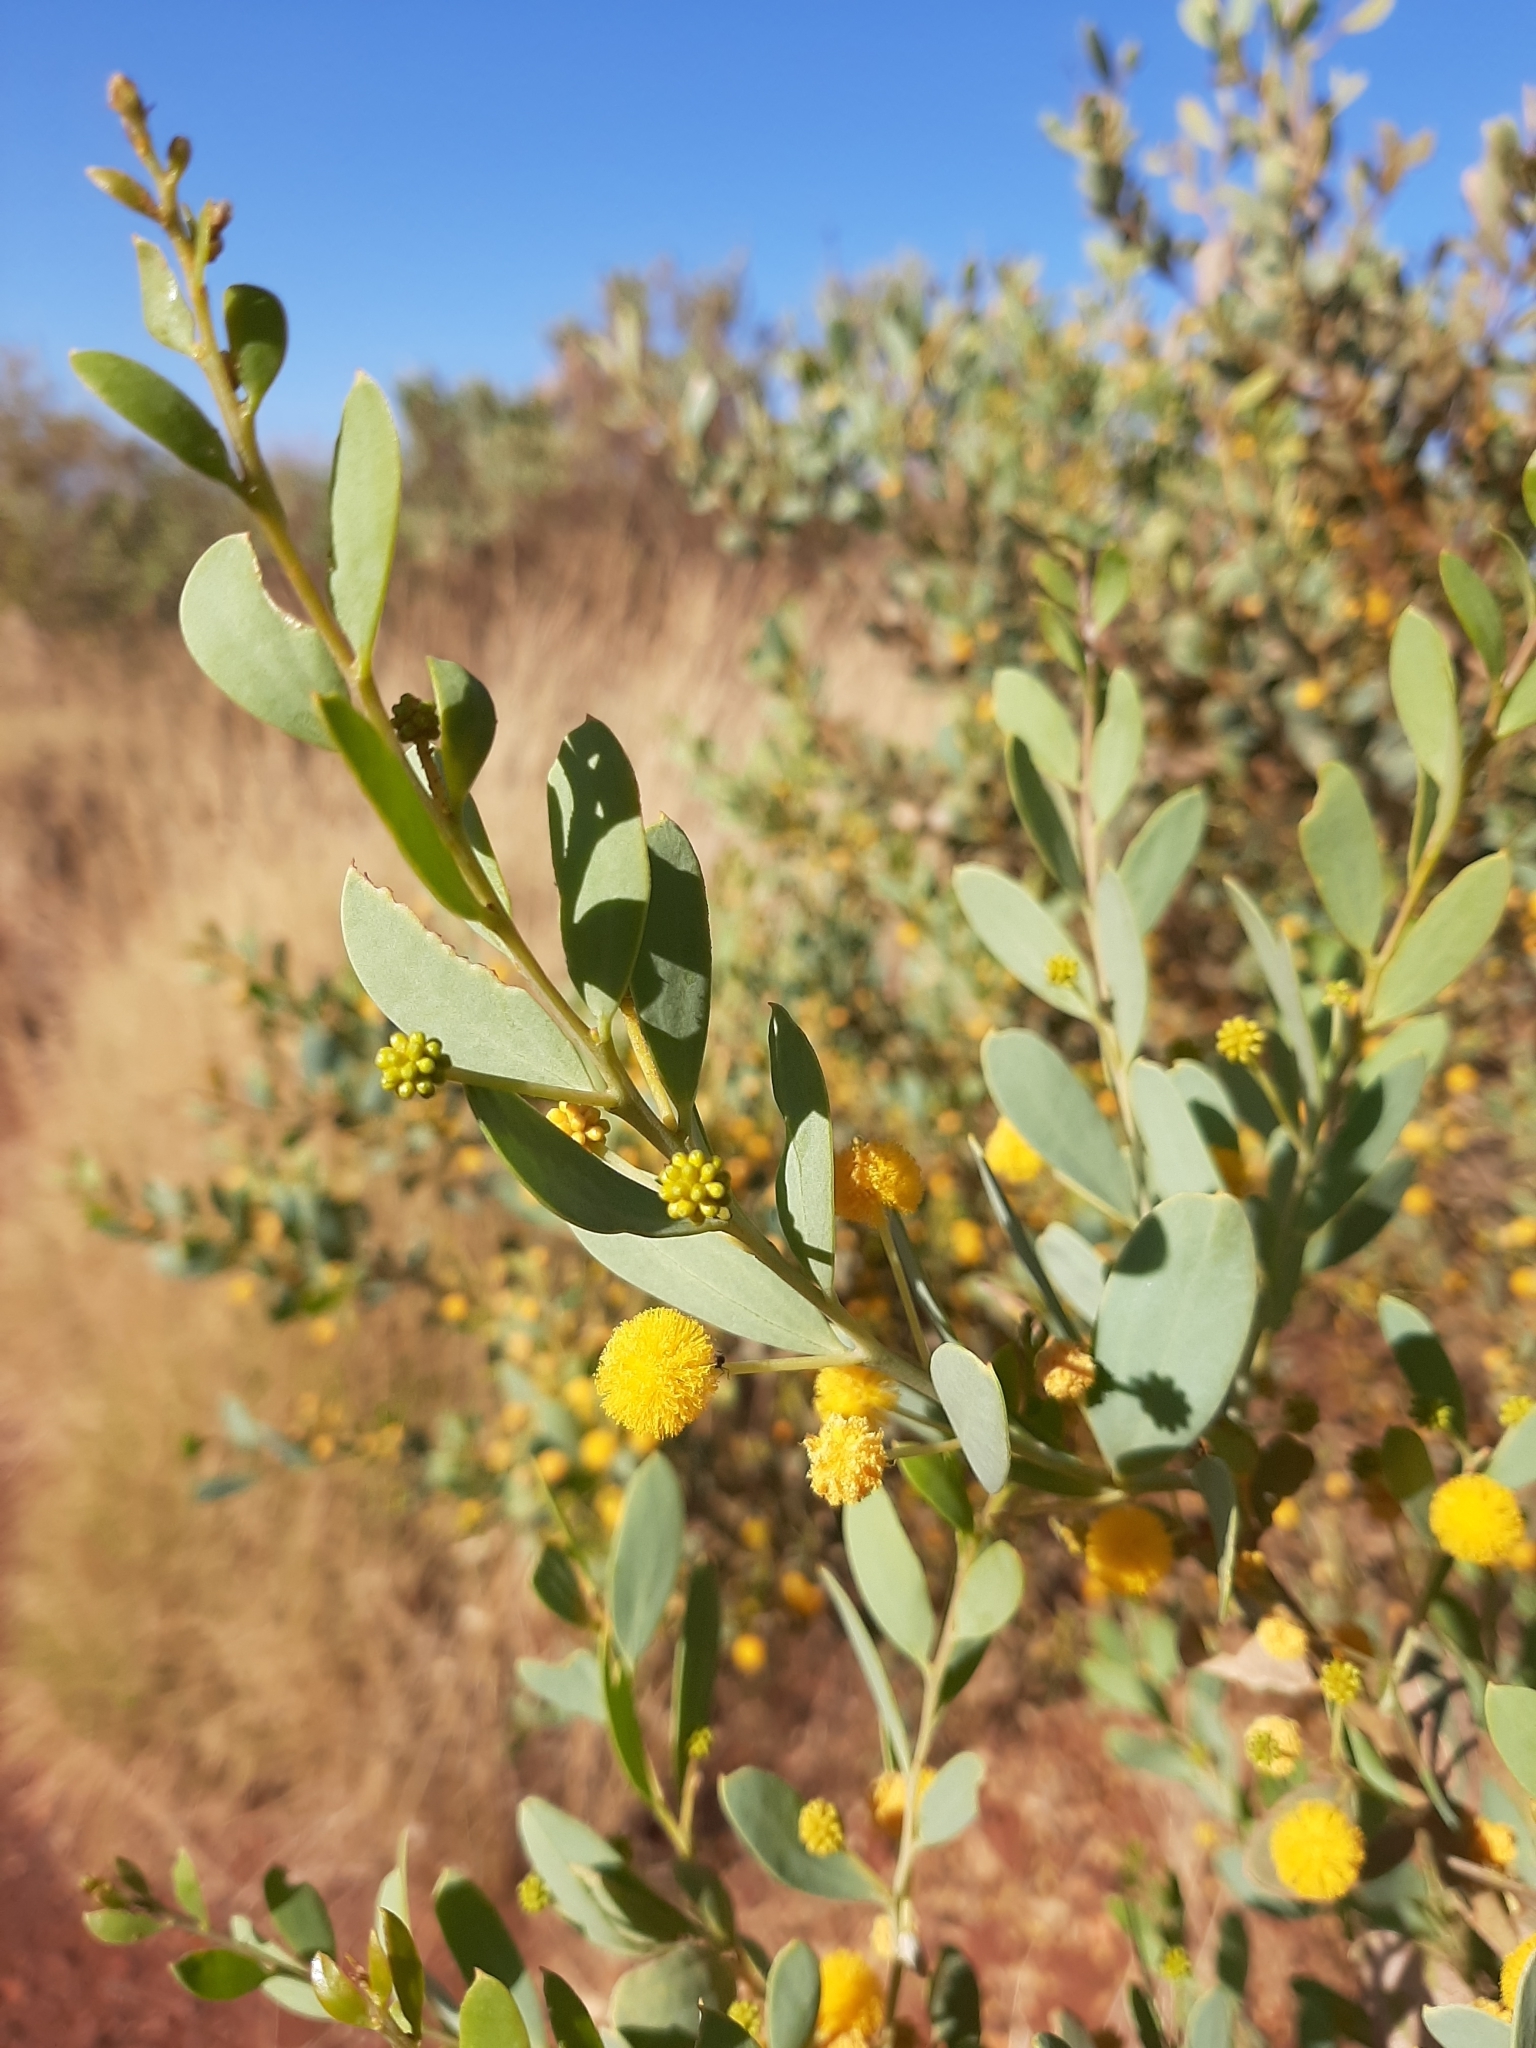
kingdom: Plantae
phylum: Tracheophyta
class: Magnoliopsida
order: Fabales
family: Fabaceae
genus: Acacia
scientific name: Acacia bivenosa
